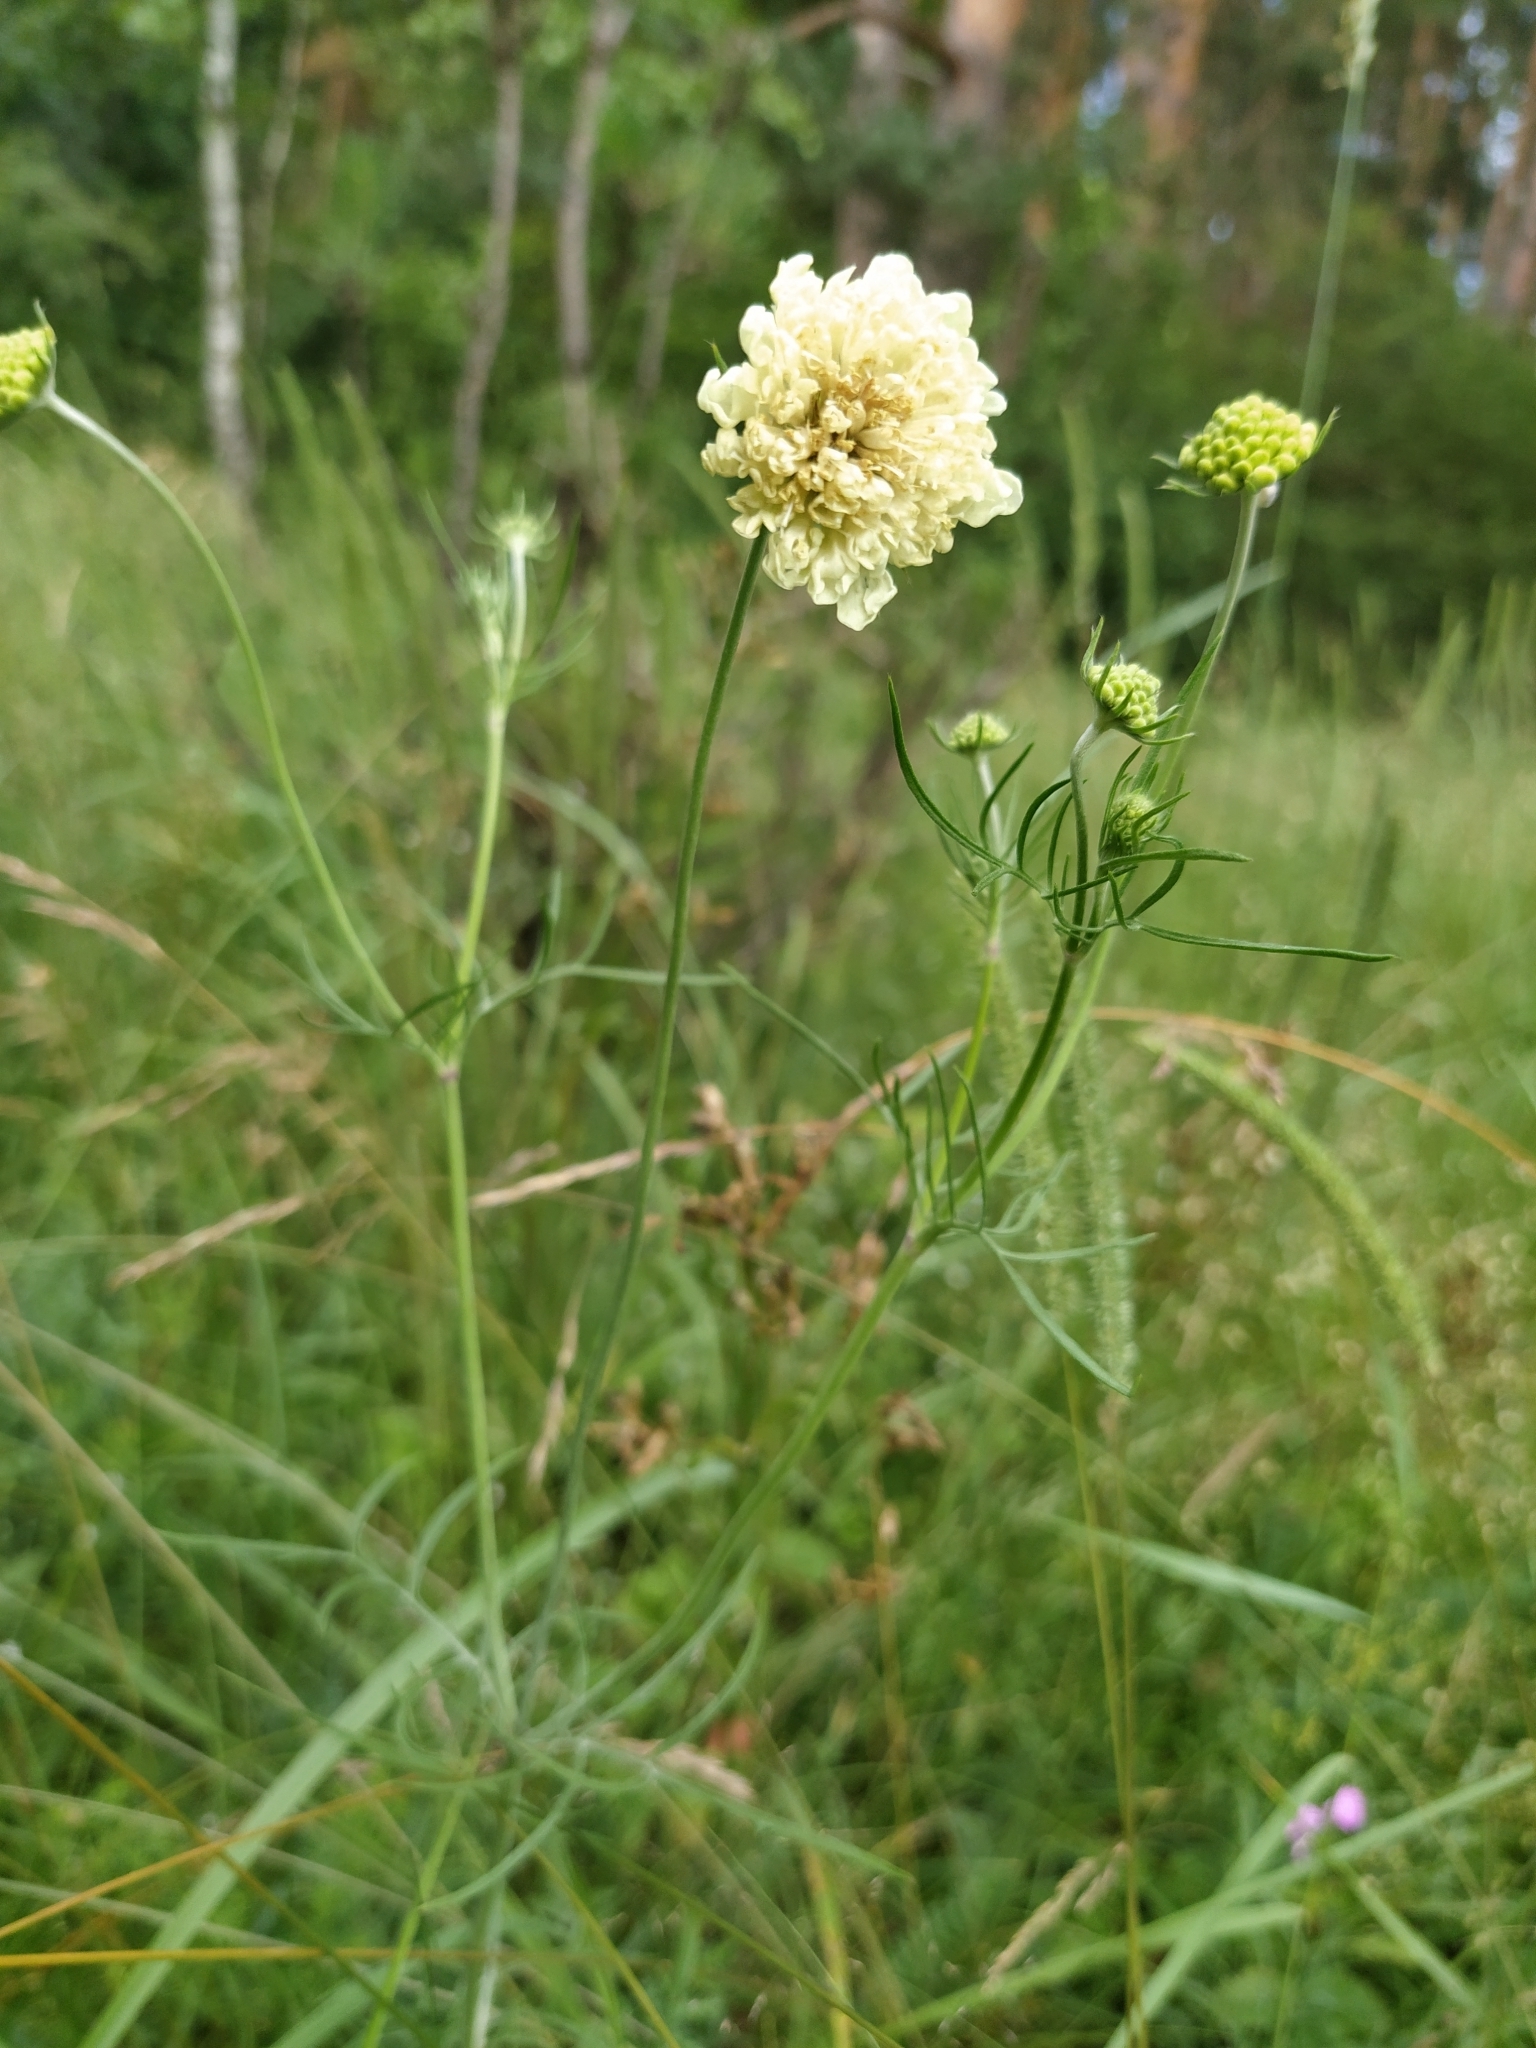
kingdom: Plantae
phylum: Tracheophyta
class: Magnoliopsida
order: Dipsacales
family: Caprifoliaceae
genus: Scabiosa
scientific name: Scabiosa ochroleuca
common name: Cream pincushions
